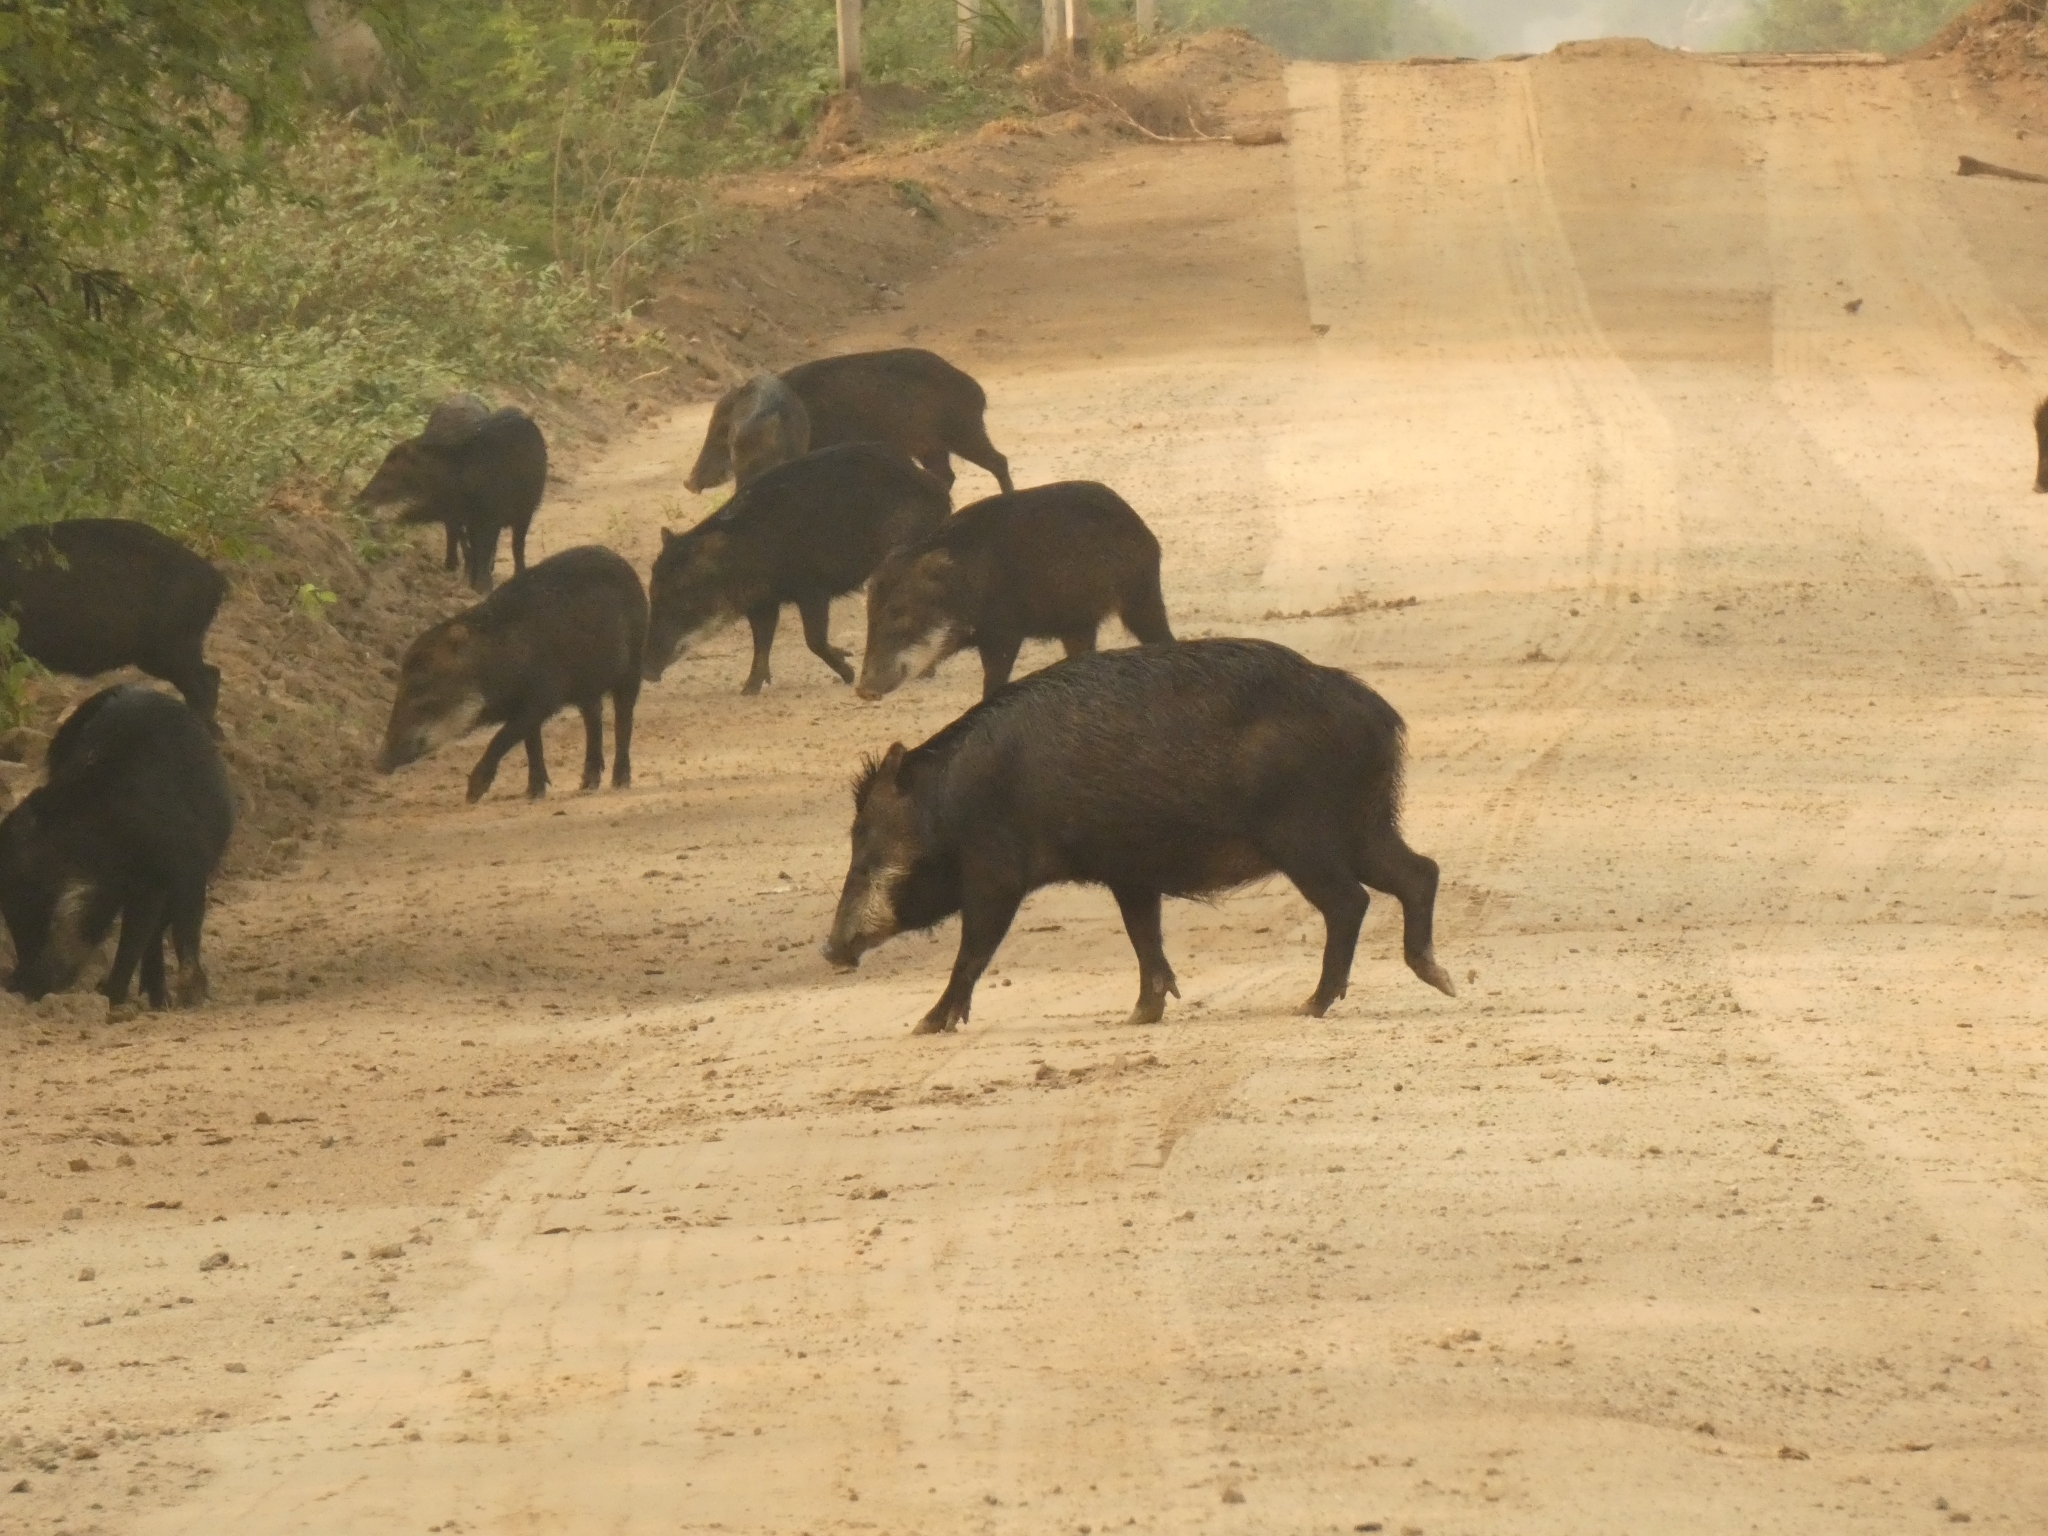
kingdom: Animalia
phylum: Chordata
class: Mammalia
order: Artiodactyla
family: Tayassuidae
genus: Tayassu
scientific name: Tayassu pecari
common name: White-lipped peccary
